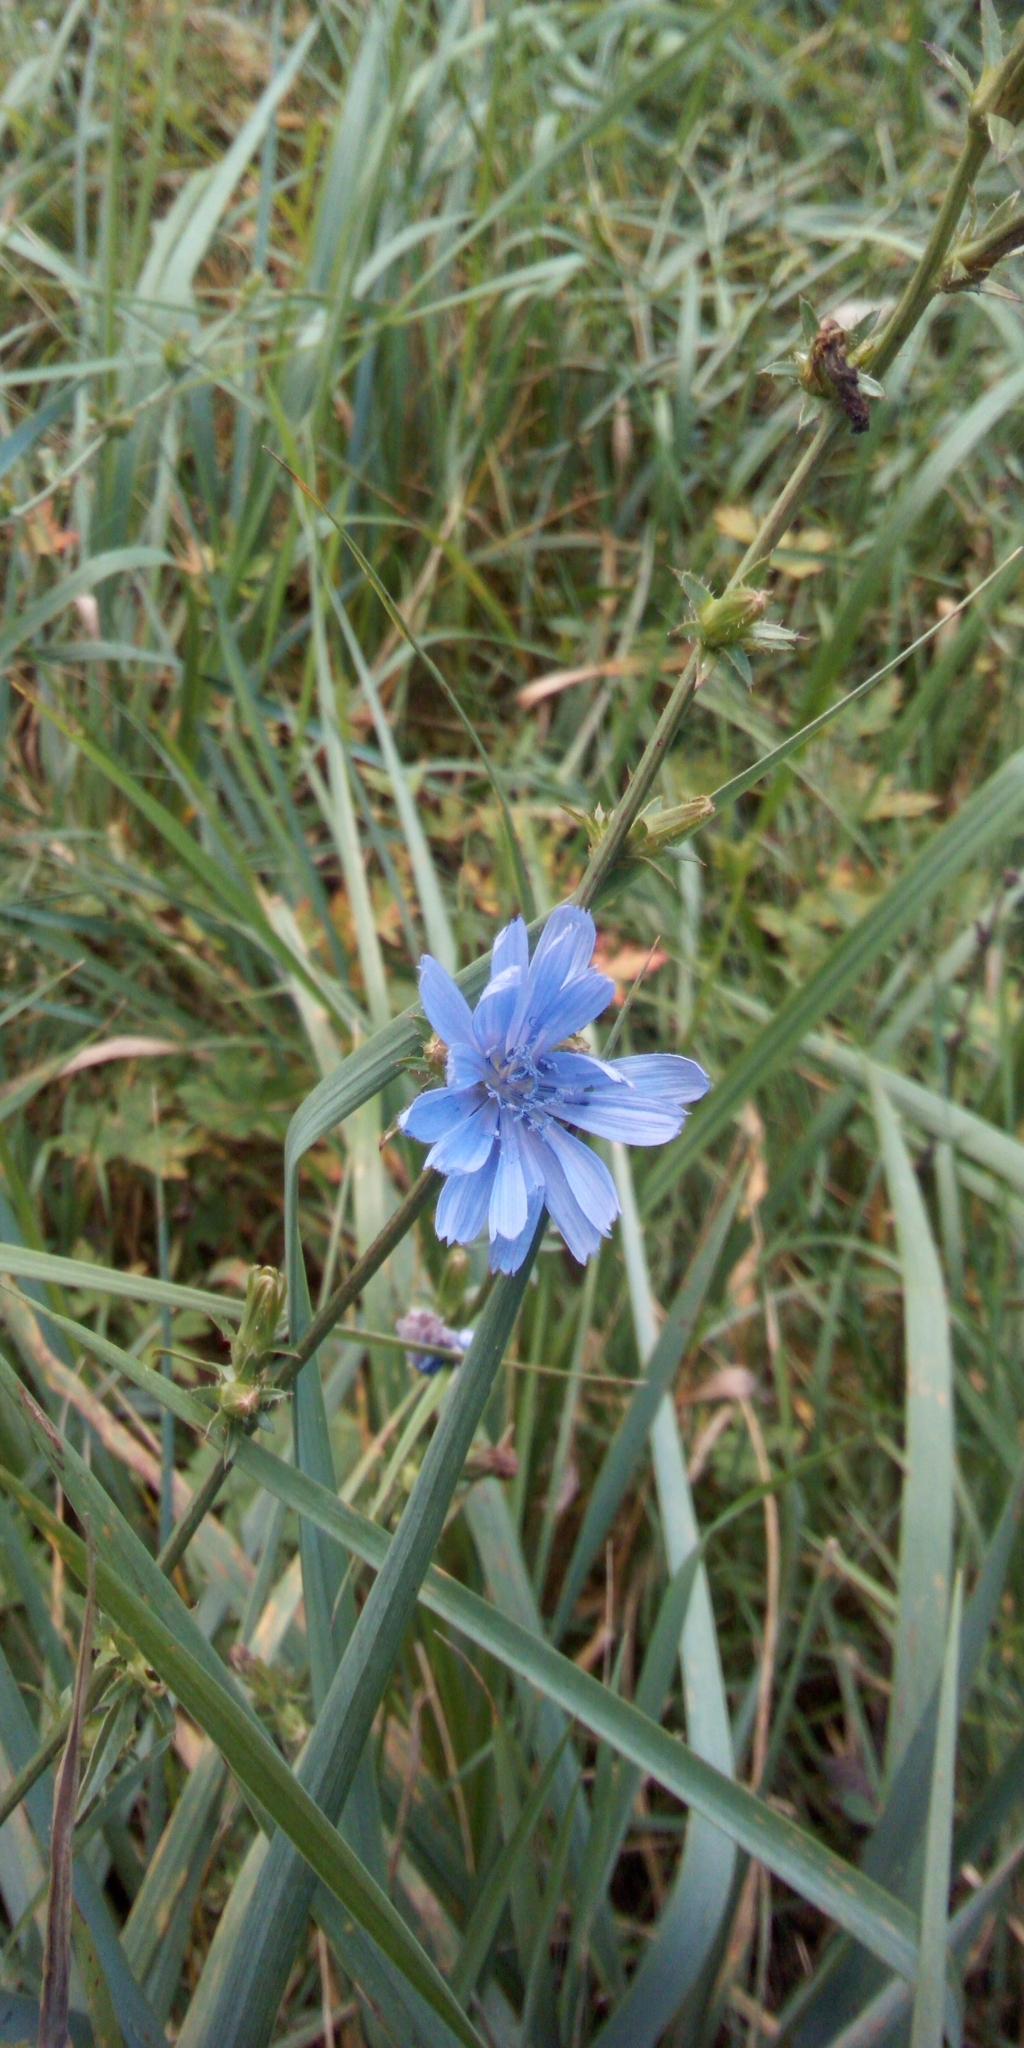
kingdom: Plantae
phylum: Tracheophyta
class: Magnoliopsida
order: Asterales
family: Asteraceae
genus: Cichorium
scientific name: Cichorium intybus
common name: Chicory
